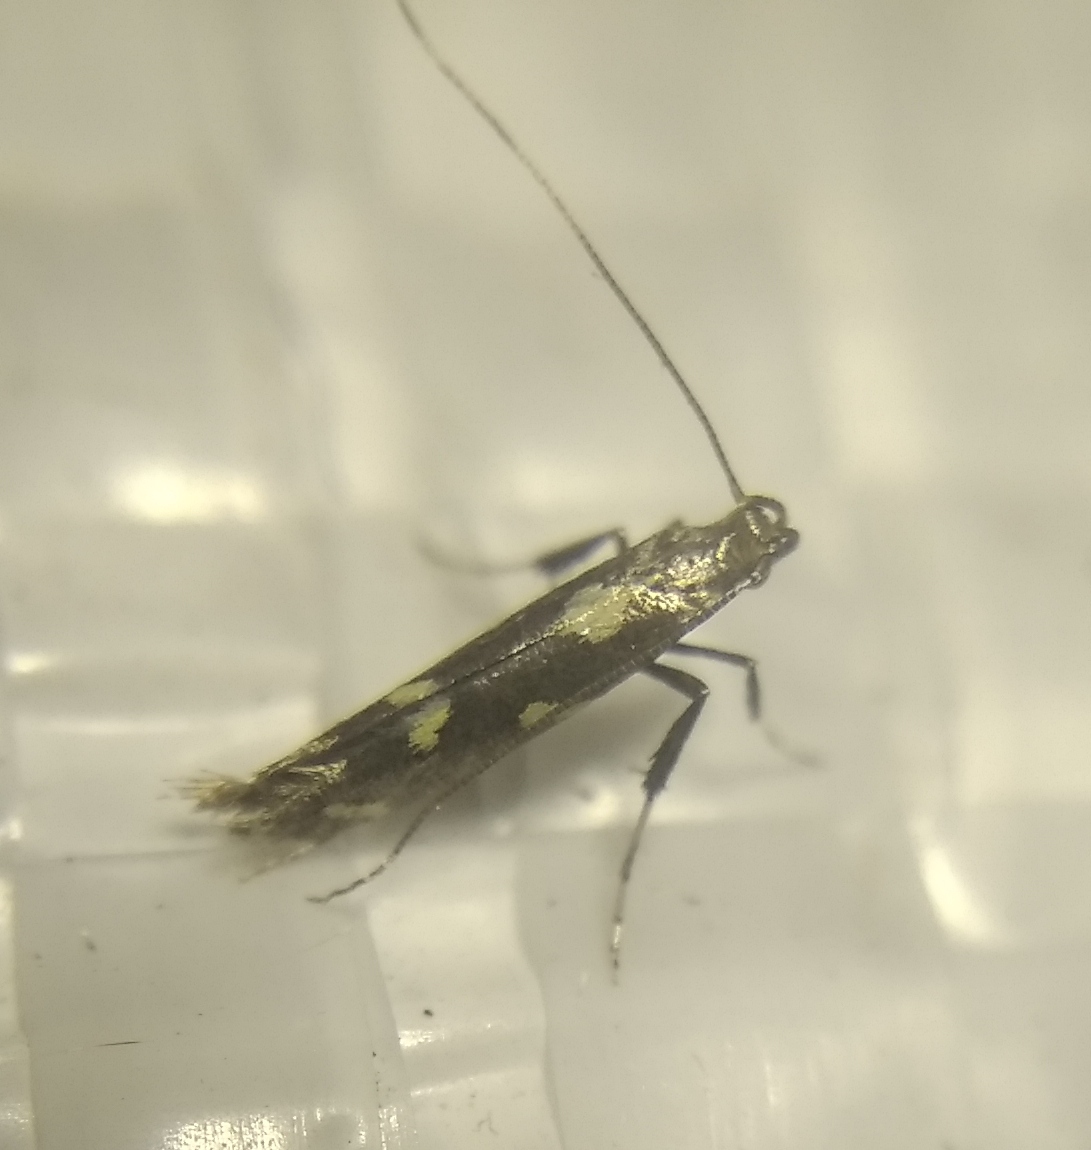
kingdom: Animalia
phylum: Arthropoda
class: Insecta
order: Lepidoptera
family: Gracillariidae
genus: Calybites
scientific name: Calybites phasianipennella
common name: Little slender
